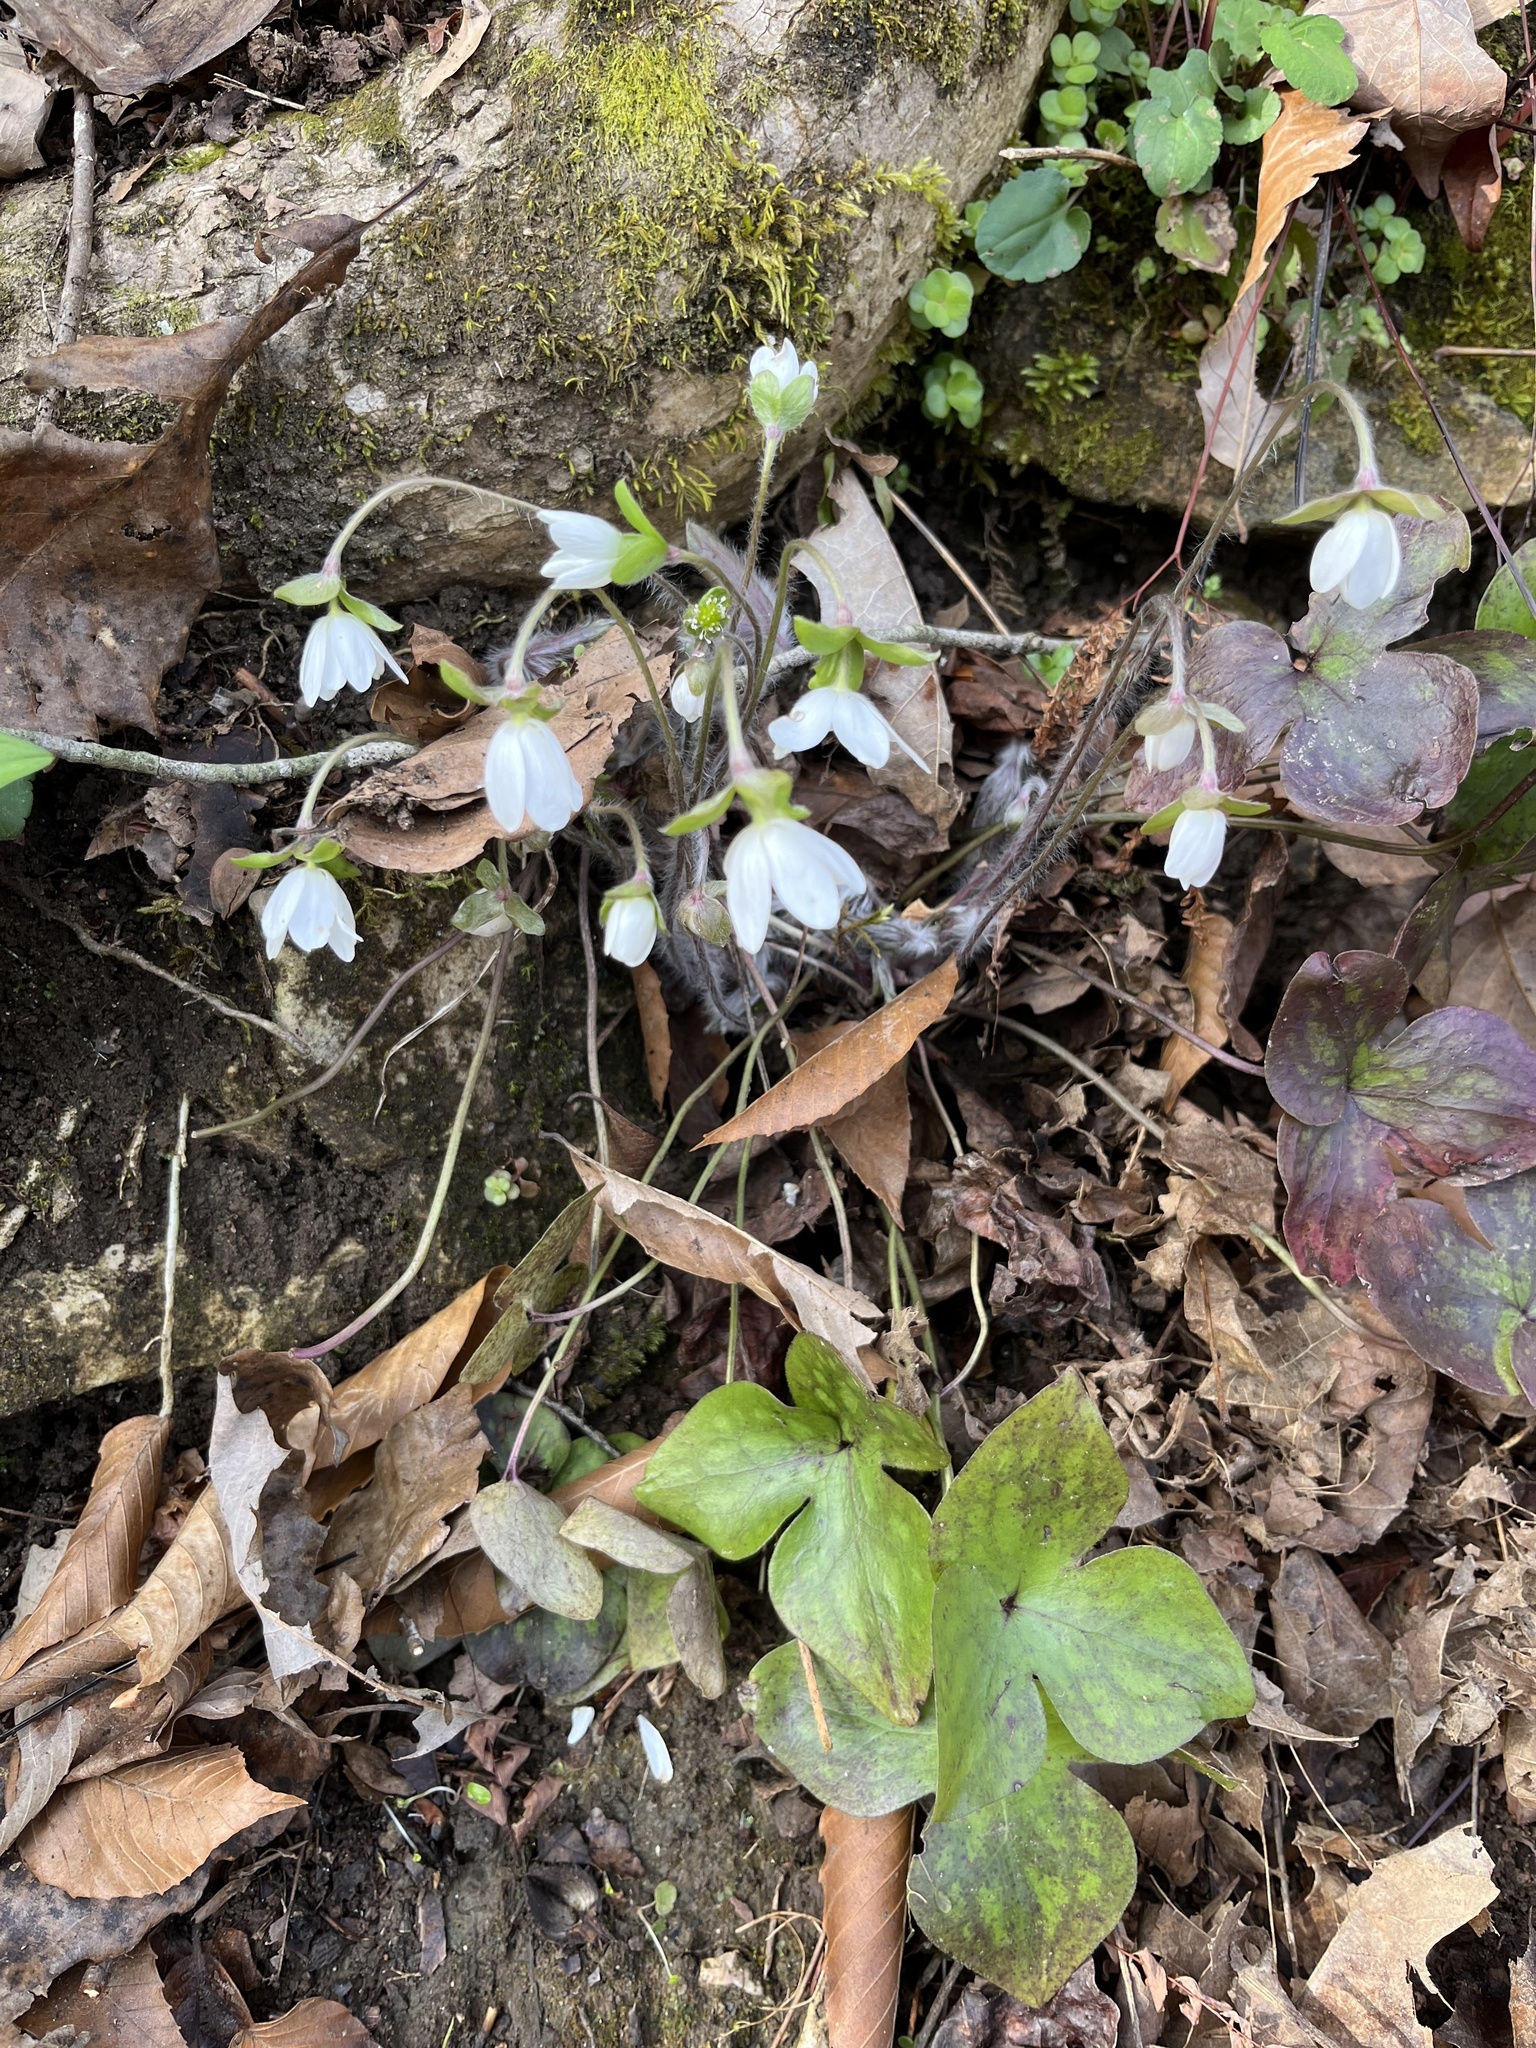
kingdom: Plantae
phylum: Tracheophyta
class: Magnoliopsida
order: Ranunculales
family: Ranunculaceae
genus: Hepatica
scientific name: Hepatica acutiloba
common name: Sharp-lobed hepatica
